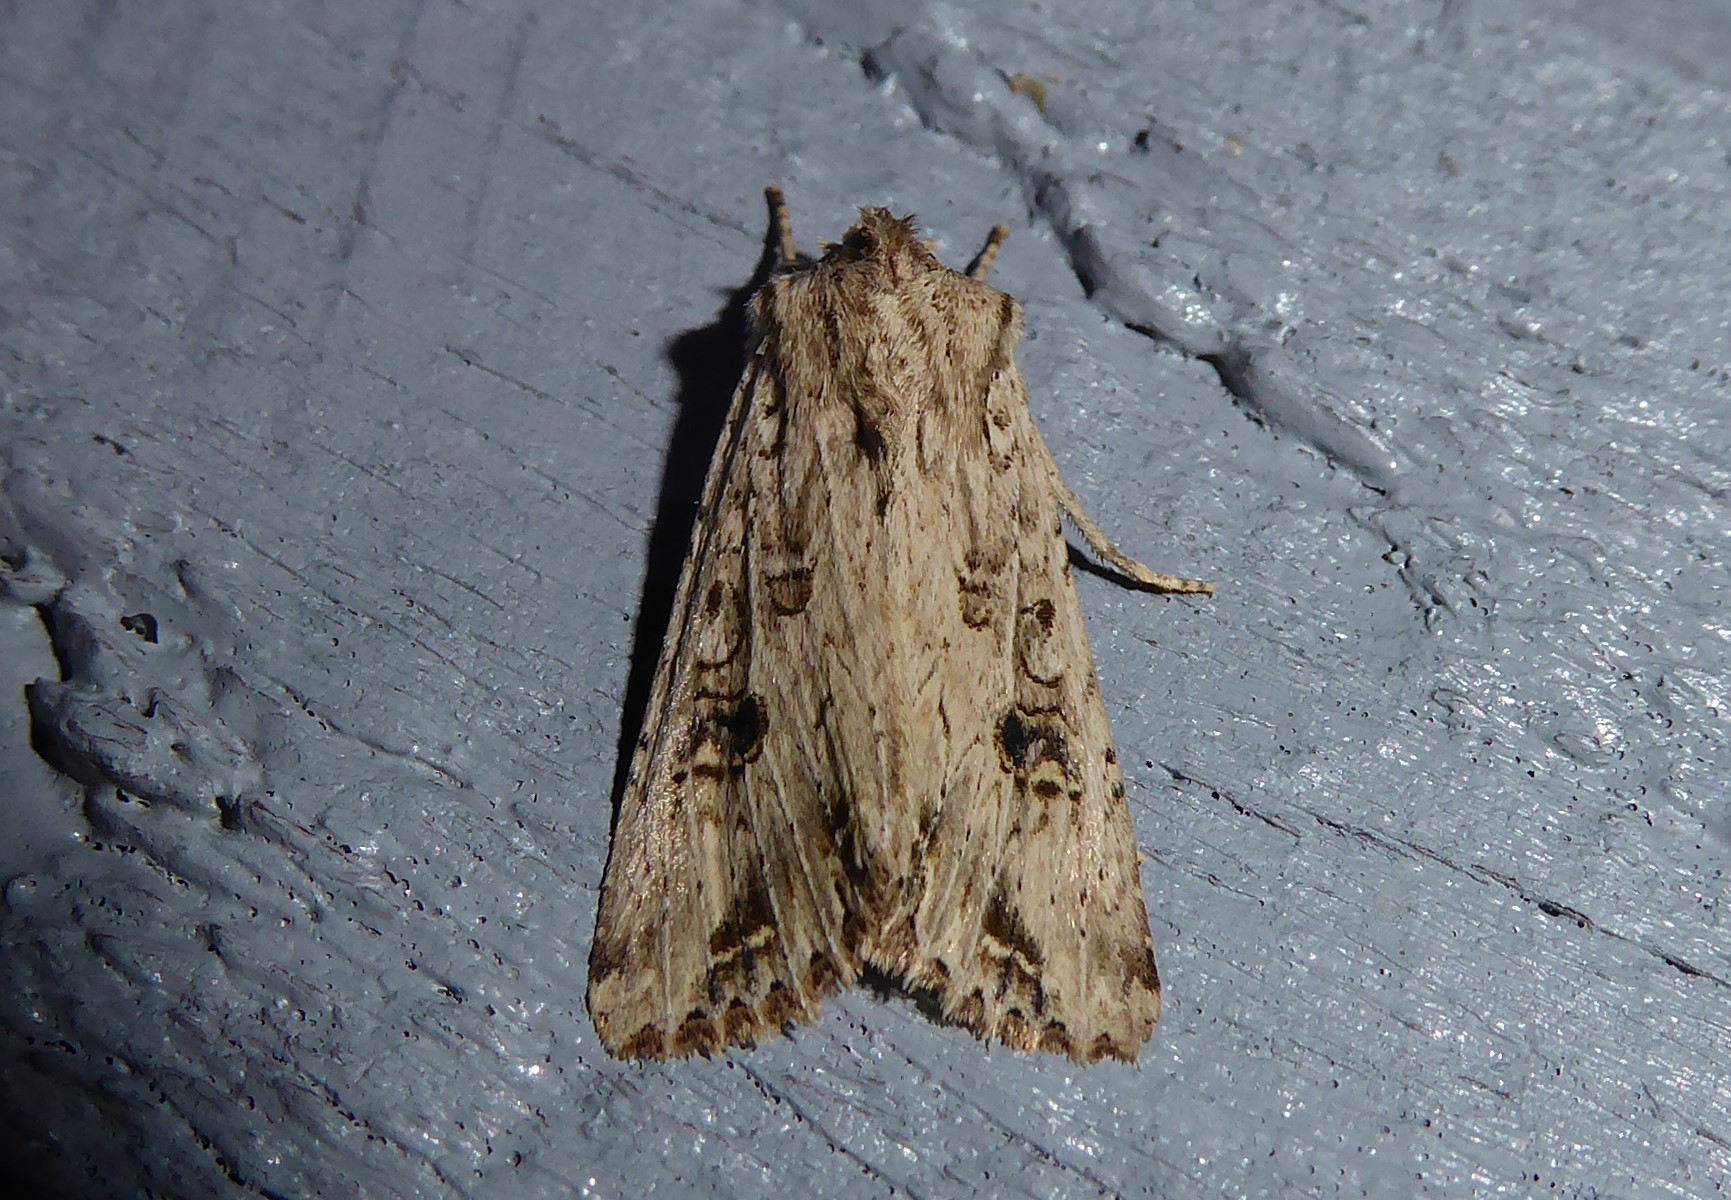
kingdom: Animalia
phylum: Arthropoda
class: Insecta
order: Lepidoptera
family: Noctuidae
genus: Ichneutica
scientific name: Ichneutica lignana
